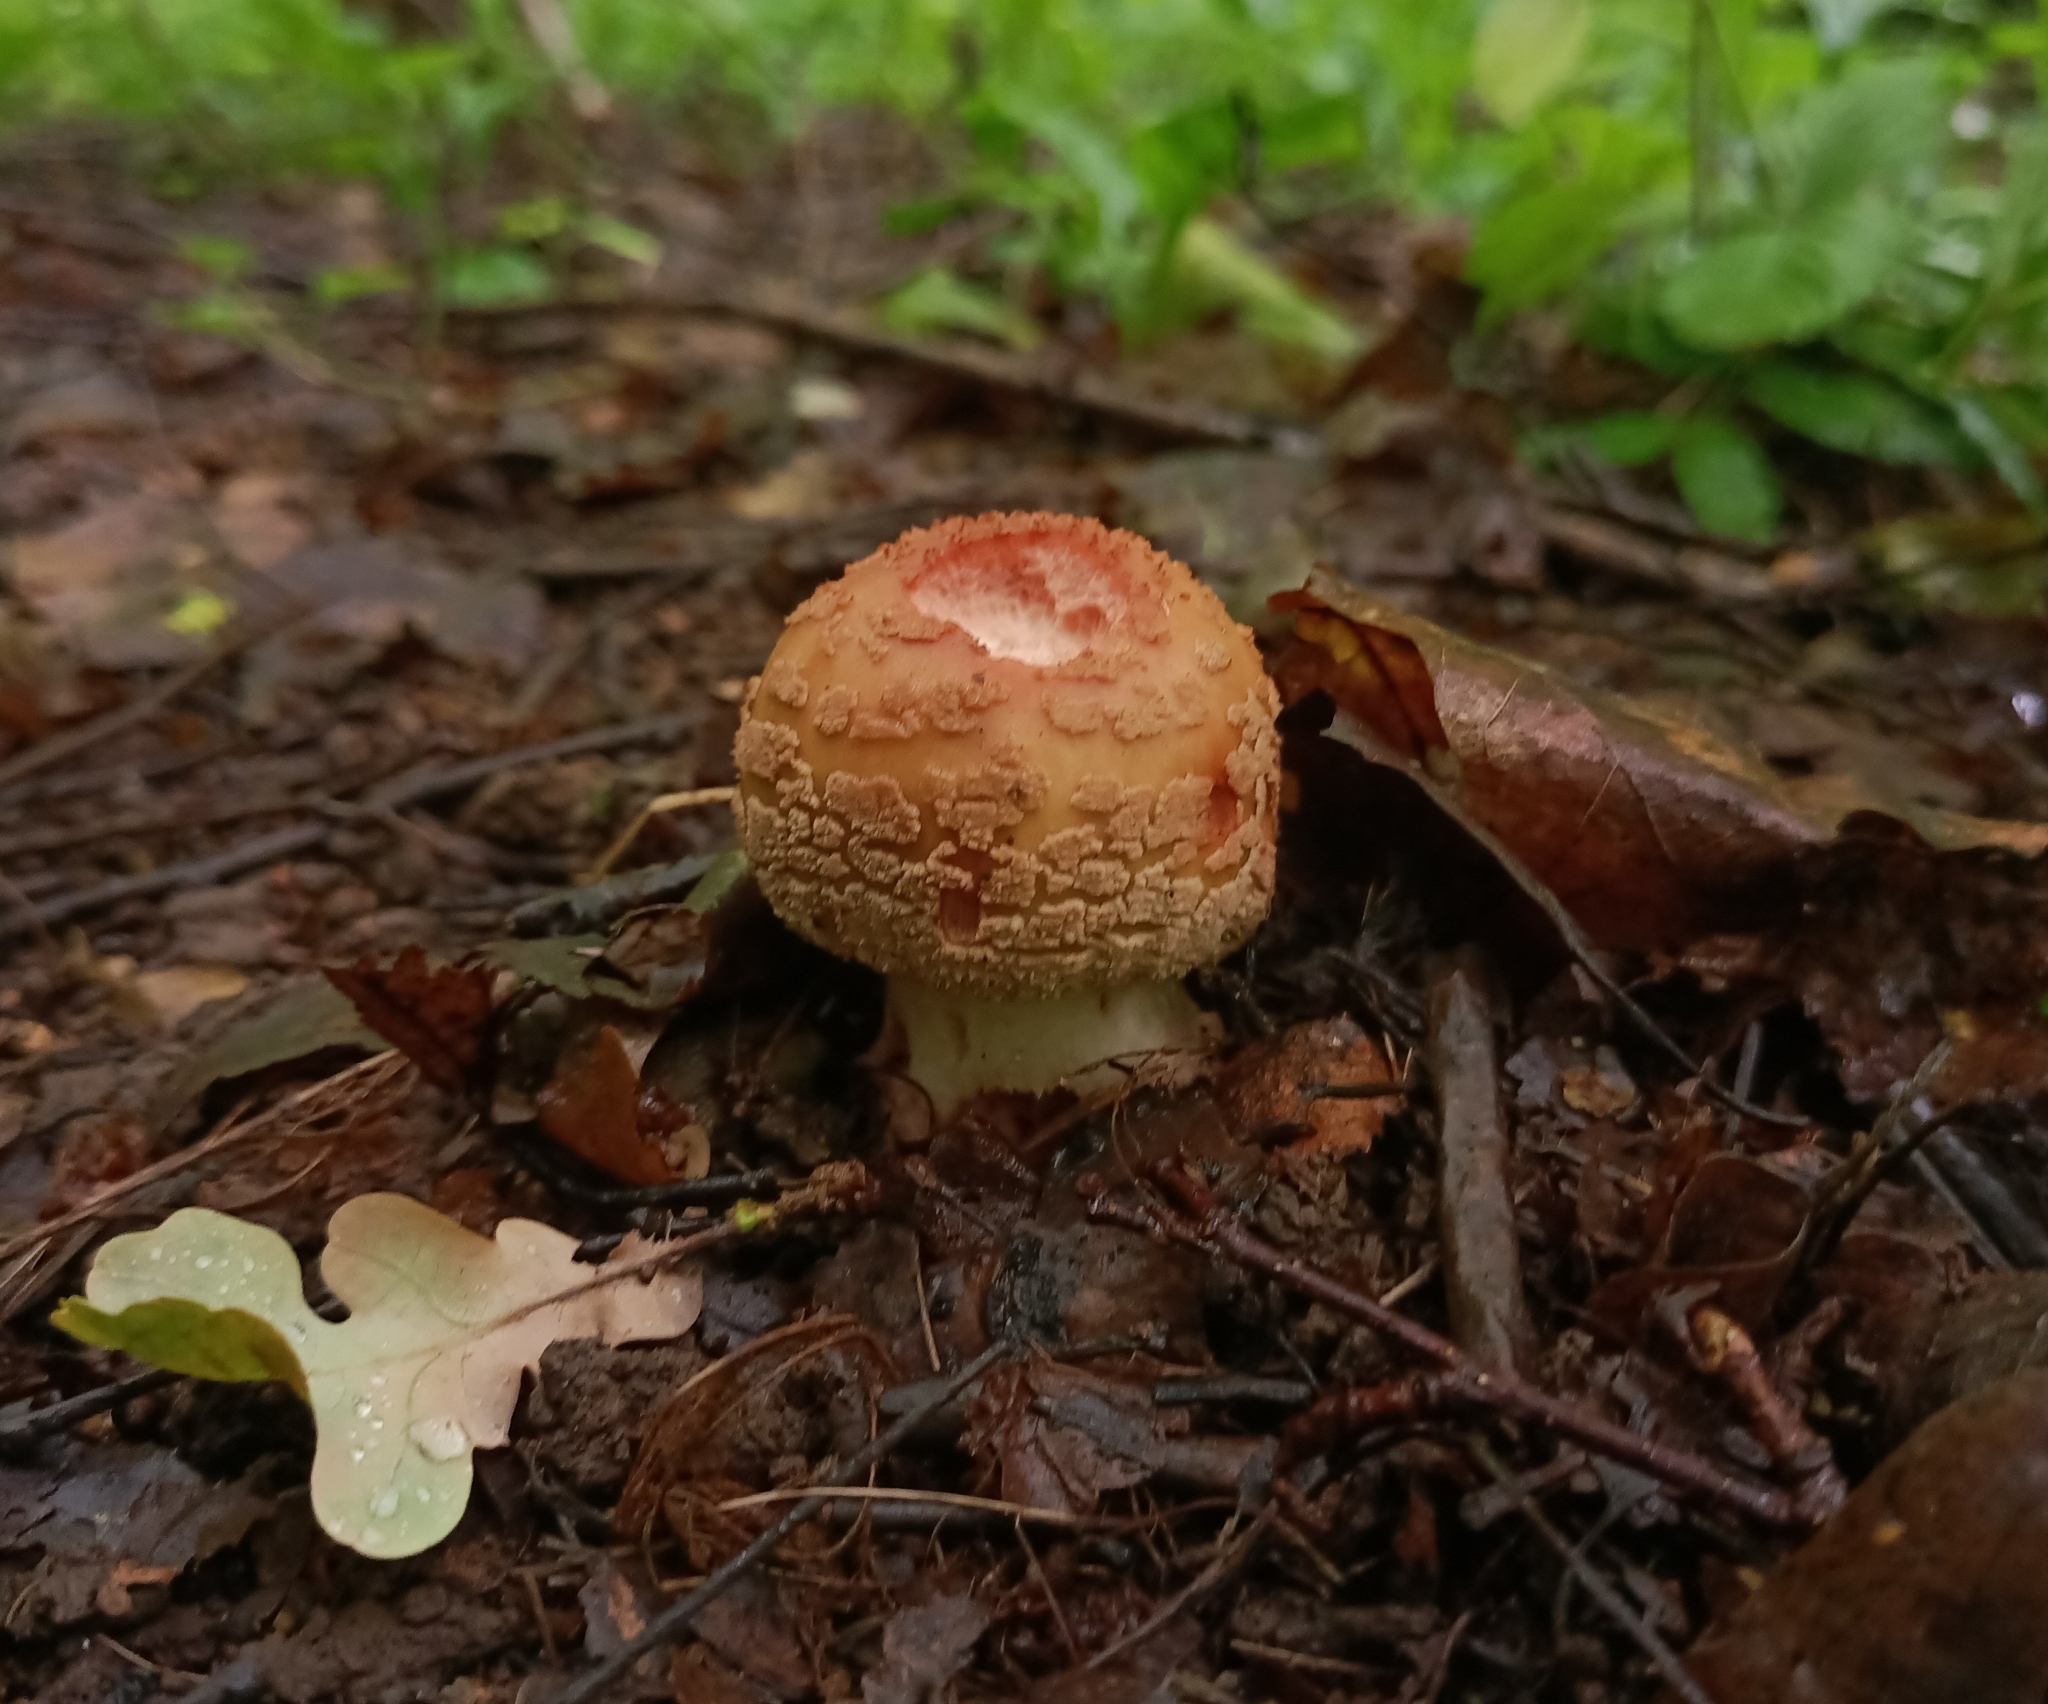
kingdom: Fungi
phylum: Basidiomycota
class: Agaricomycetes
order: Agaricales
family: Amanitaceae
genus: Amanita
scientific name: Amanita rubescens
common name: Blusher
